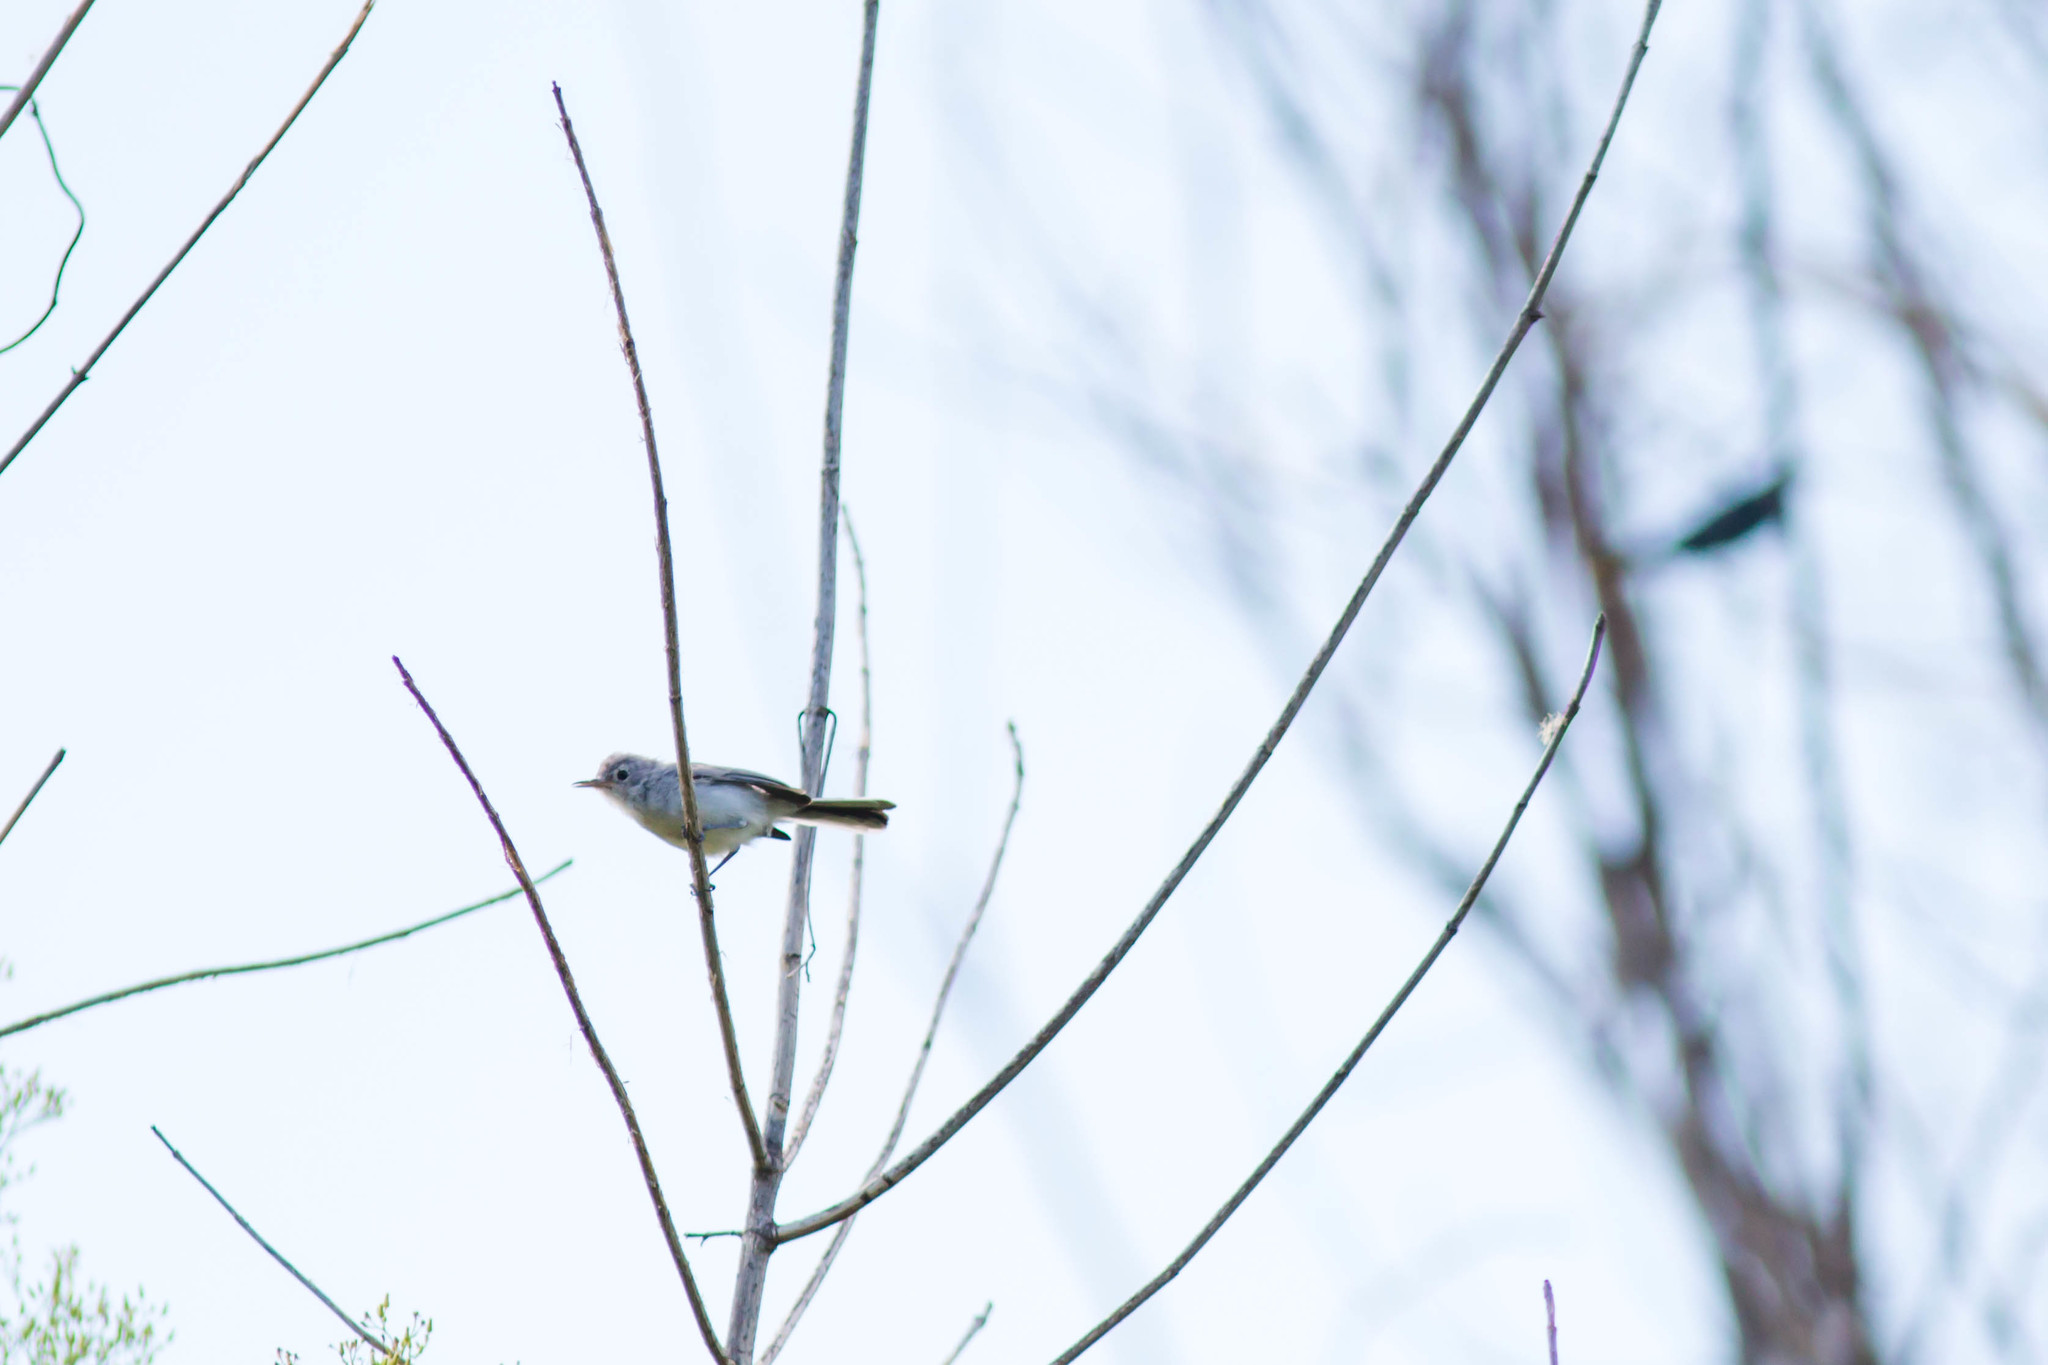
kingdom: Animalia
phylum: Chordata
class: Aves
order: Passeriformes
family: Polioptilidae
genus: Polioptila
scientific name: Polioptila caerulea
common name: Blue-gray gnatcatcher
